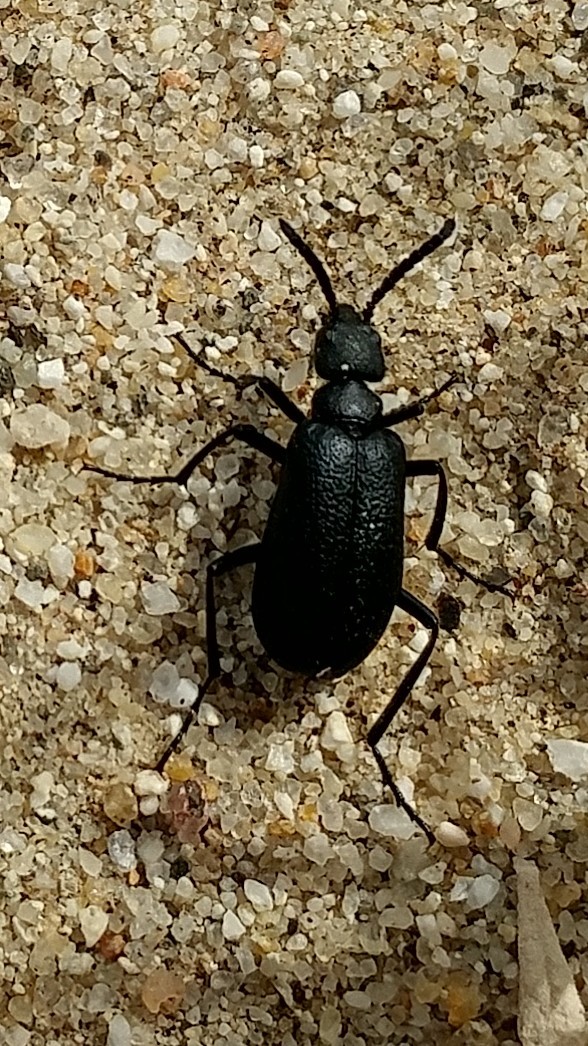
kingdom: Animalia
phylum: Arthropoda
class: Insecta
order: Coleoptera
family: Meloidae
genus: Cordylospasta
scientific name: Cordylospasta opaca
